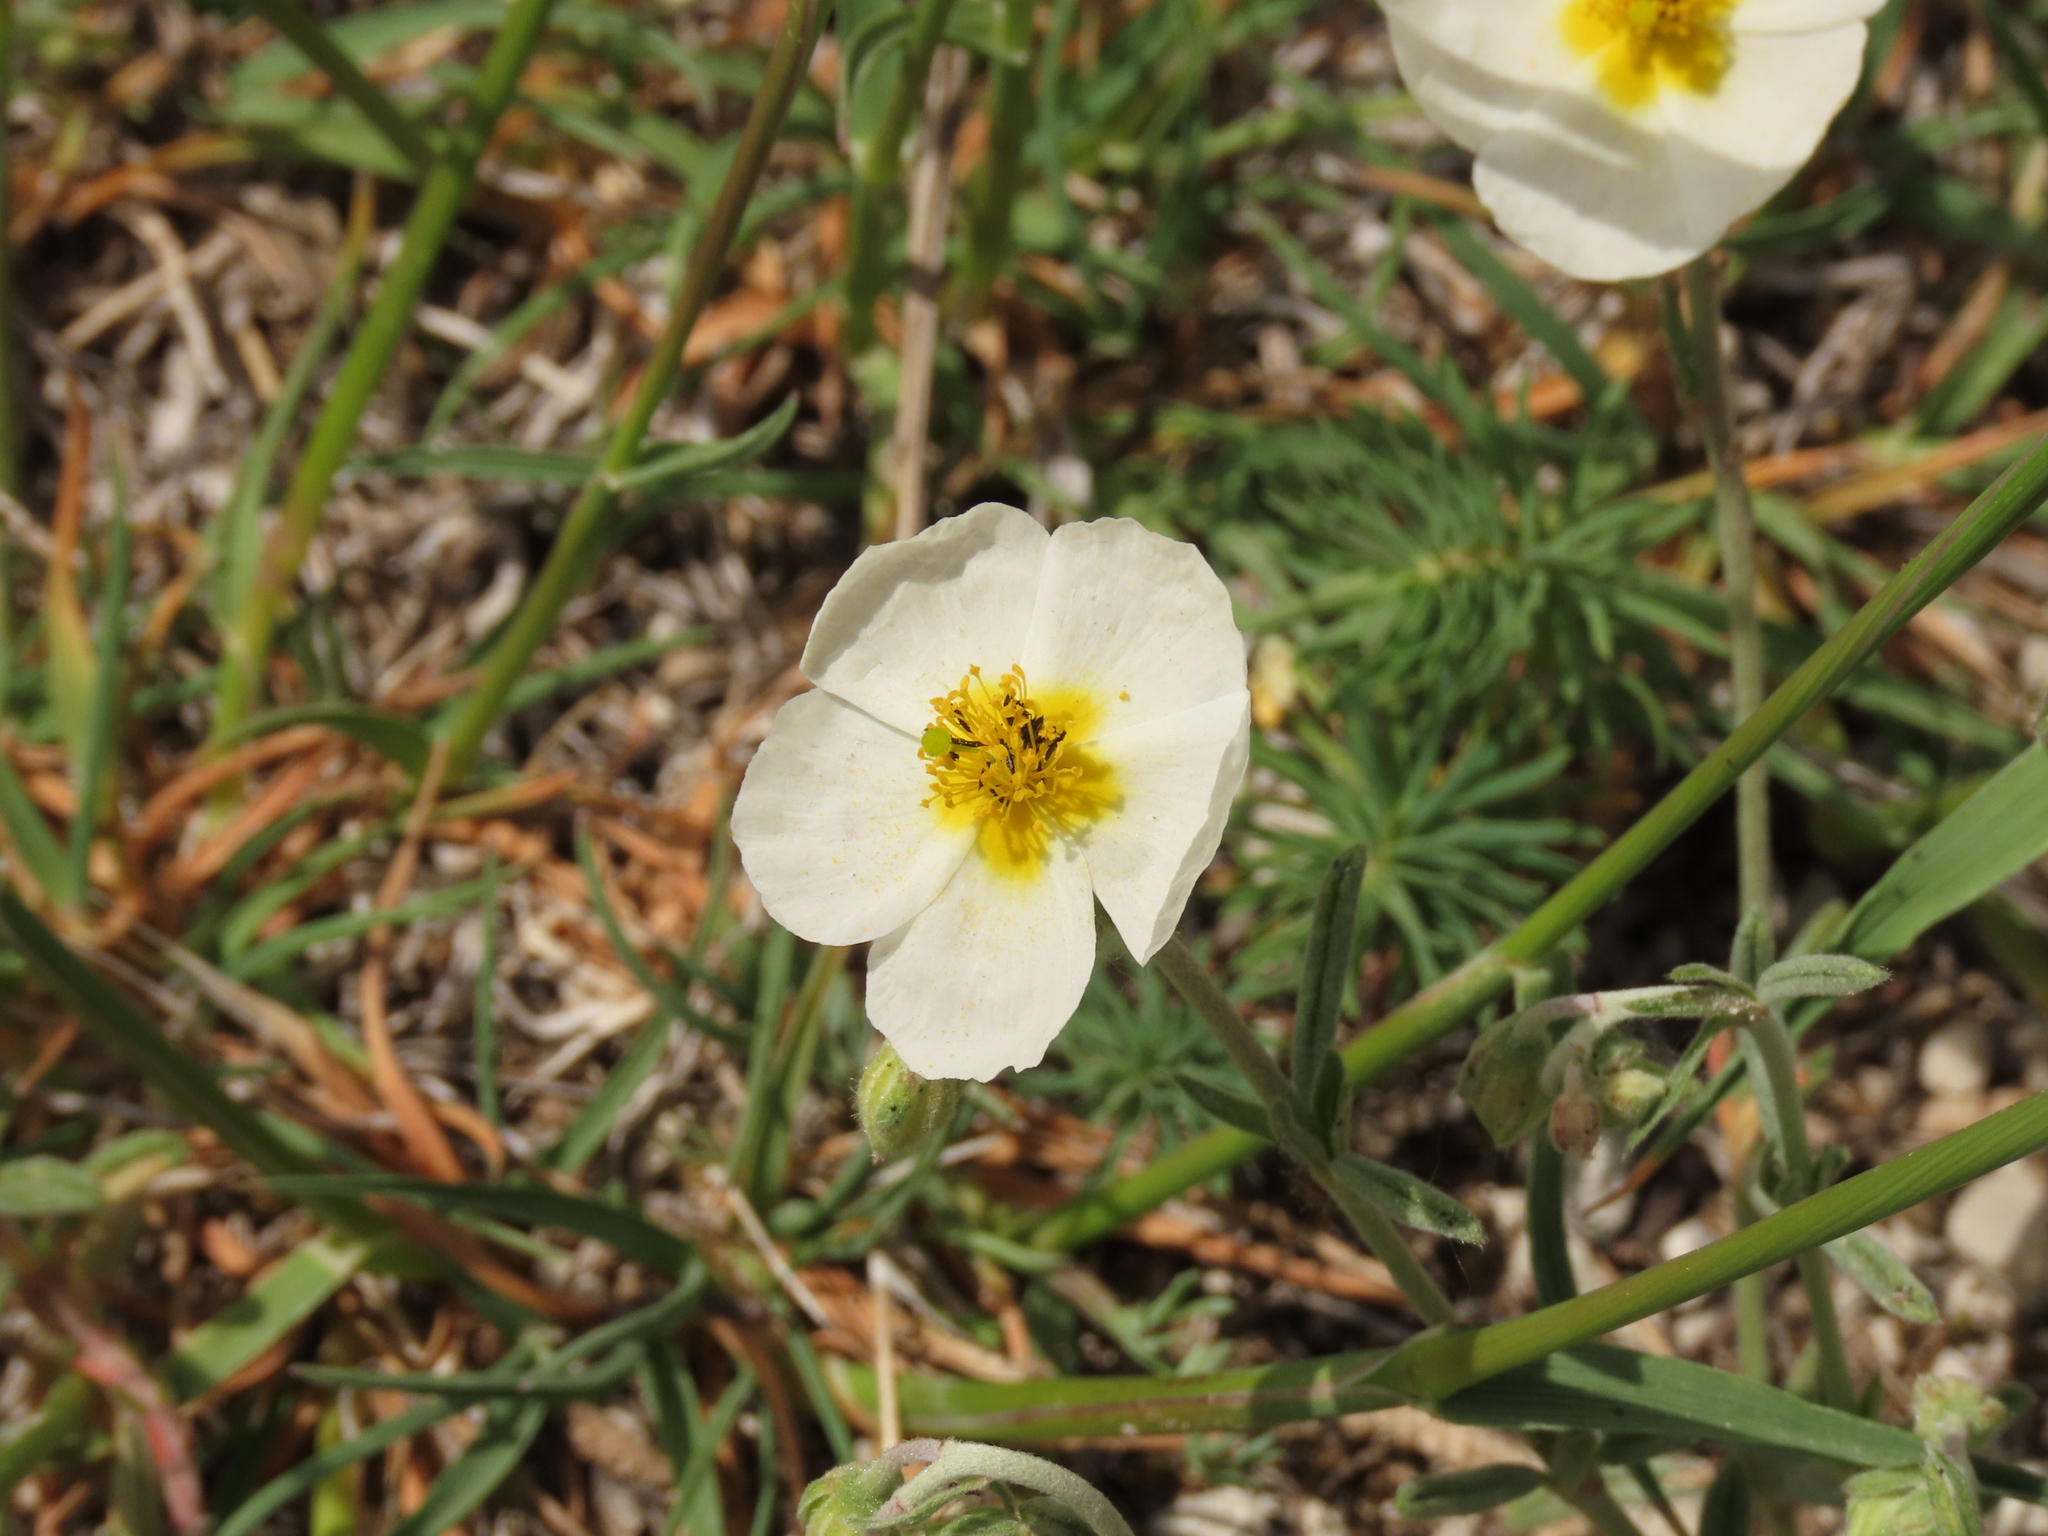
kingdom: Plantae
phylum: Tracheophyta
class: Magnoliopsida
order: Malvales
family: Cistaceae
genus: Helianthemum
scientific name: Helianthemum apenninum
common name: White rock-rose
